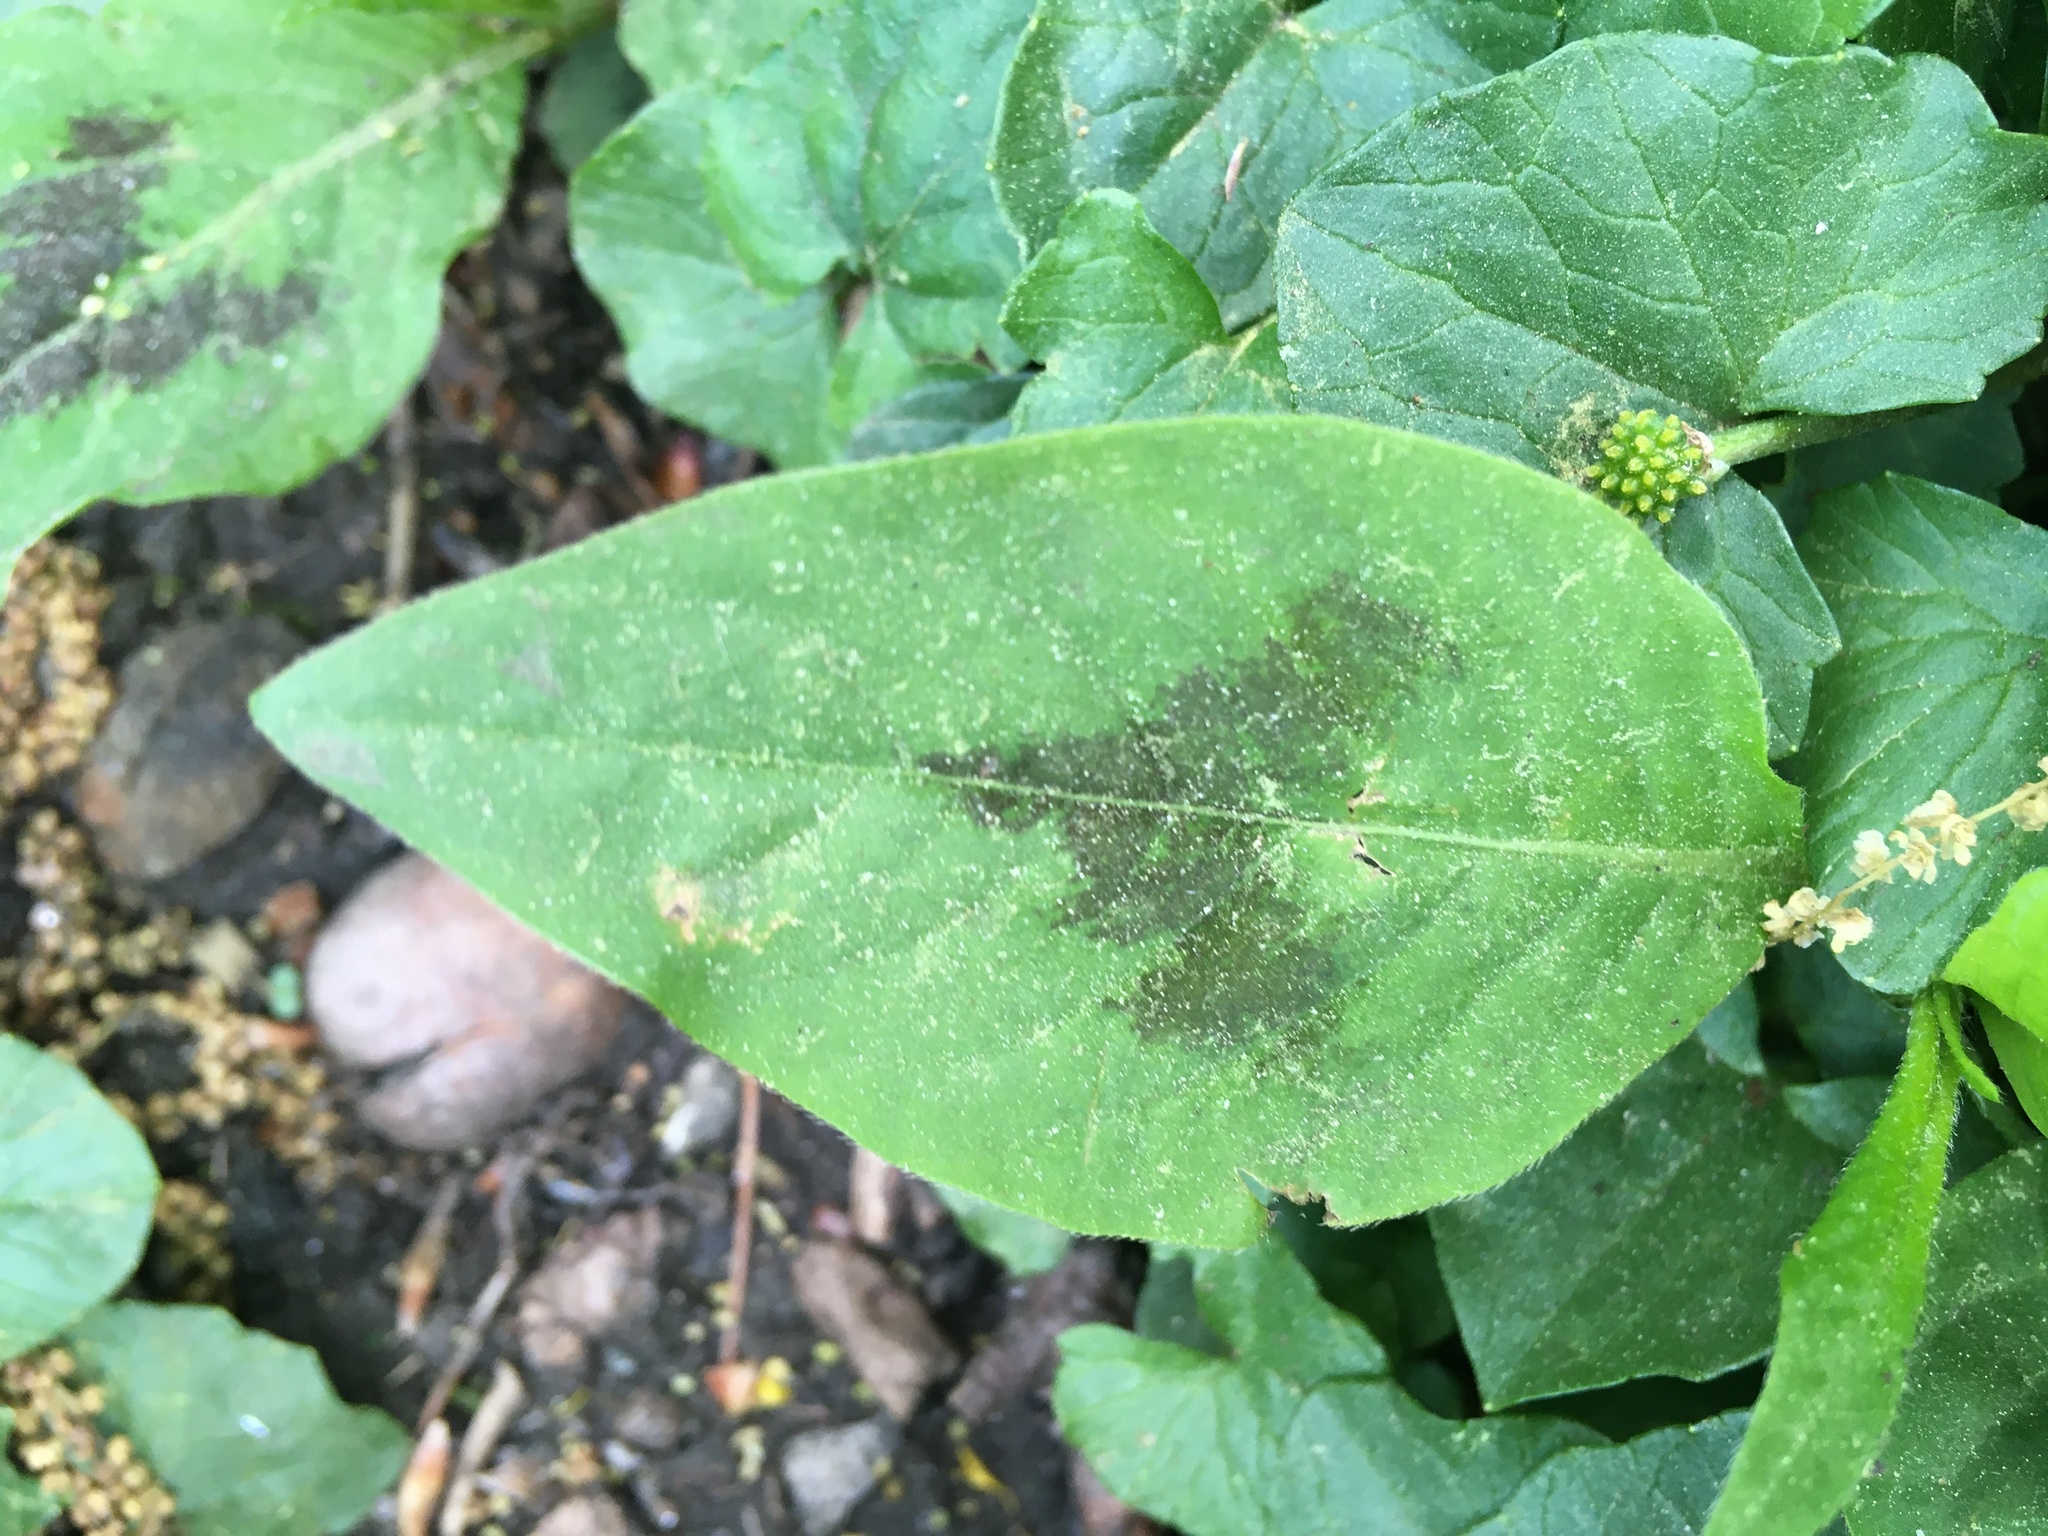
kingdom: Plantae
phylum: Tracheophyta
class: Magnoliopsida
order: Caryophyllales
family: Polygonaceae
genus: Persicaria
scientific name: Persicaria virginiana
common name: Jumpseed
